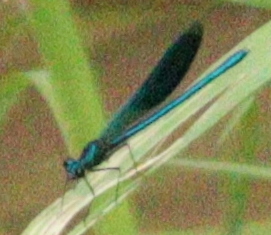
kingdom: Animalia
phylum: Arthropoda
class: Insecta
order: Odonata
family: Calopterygidae
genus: Calopteryx
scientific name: Calopteryx splendens
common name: Banded demoiselle
